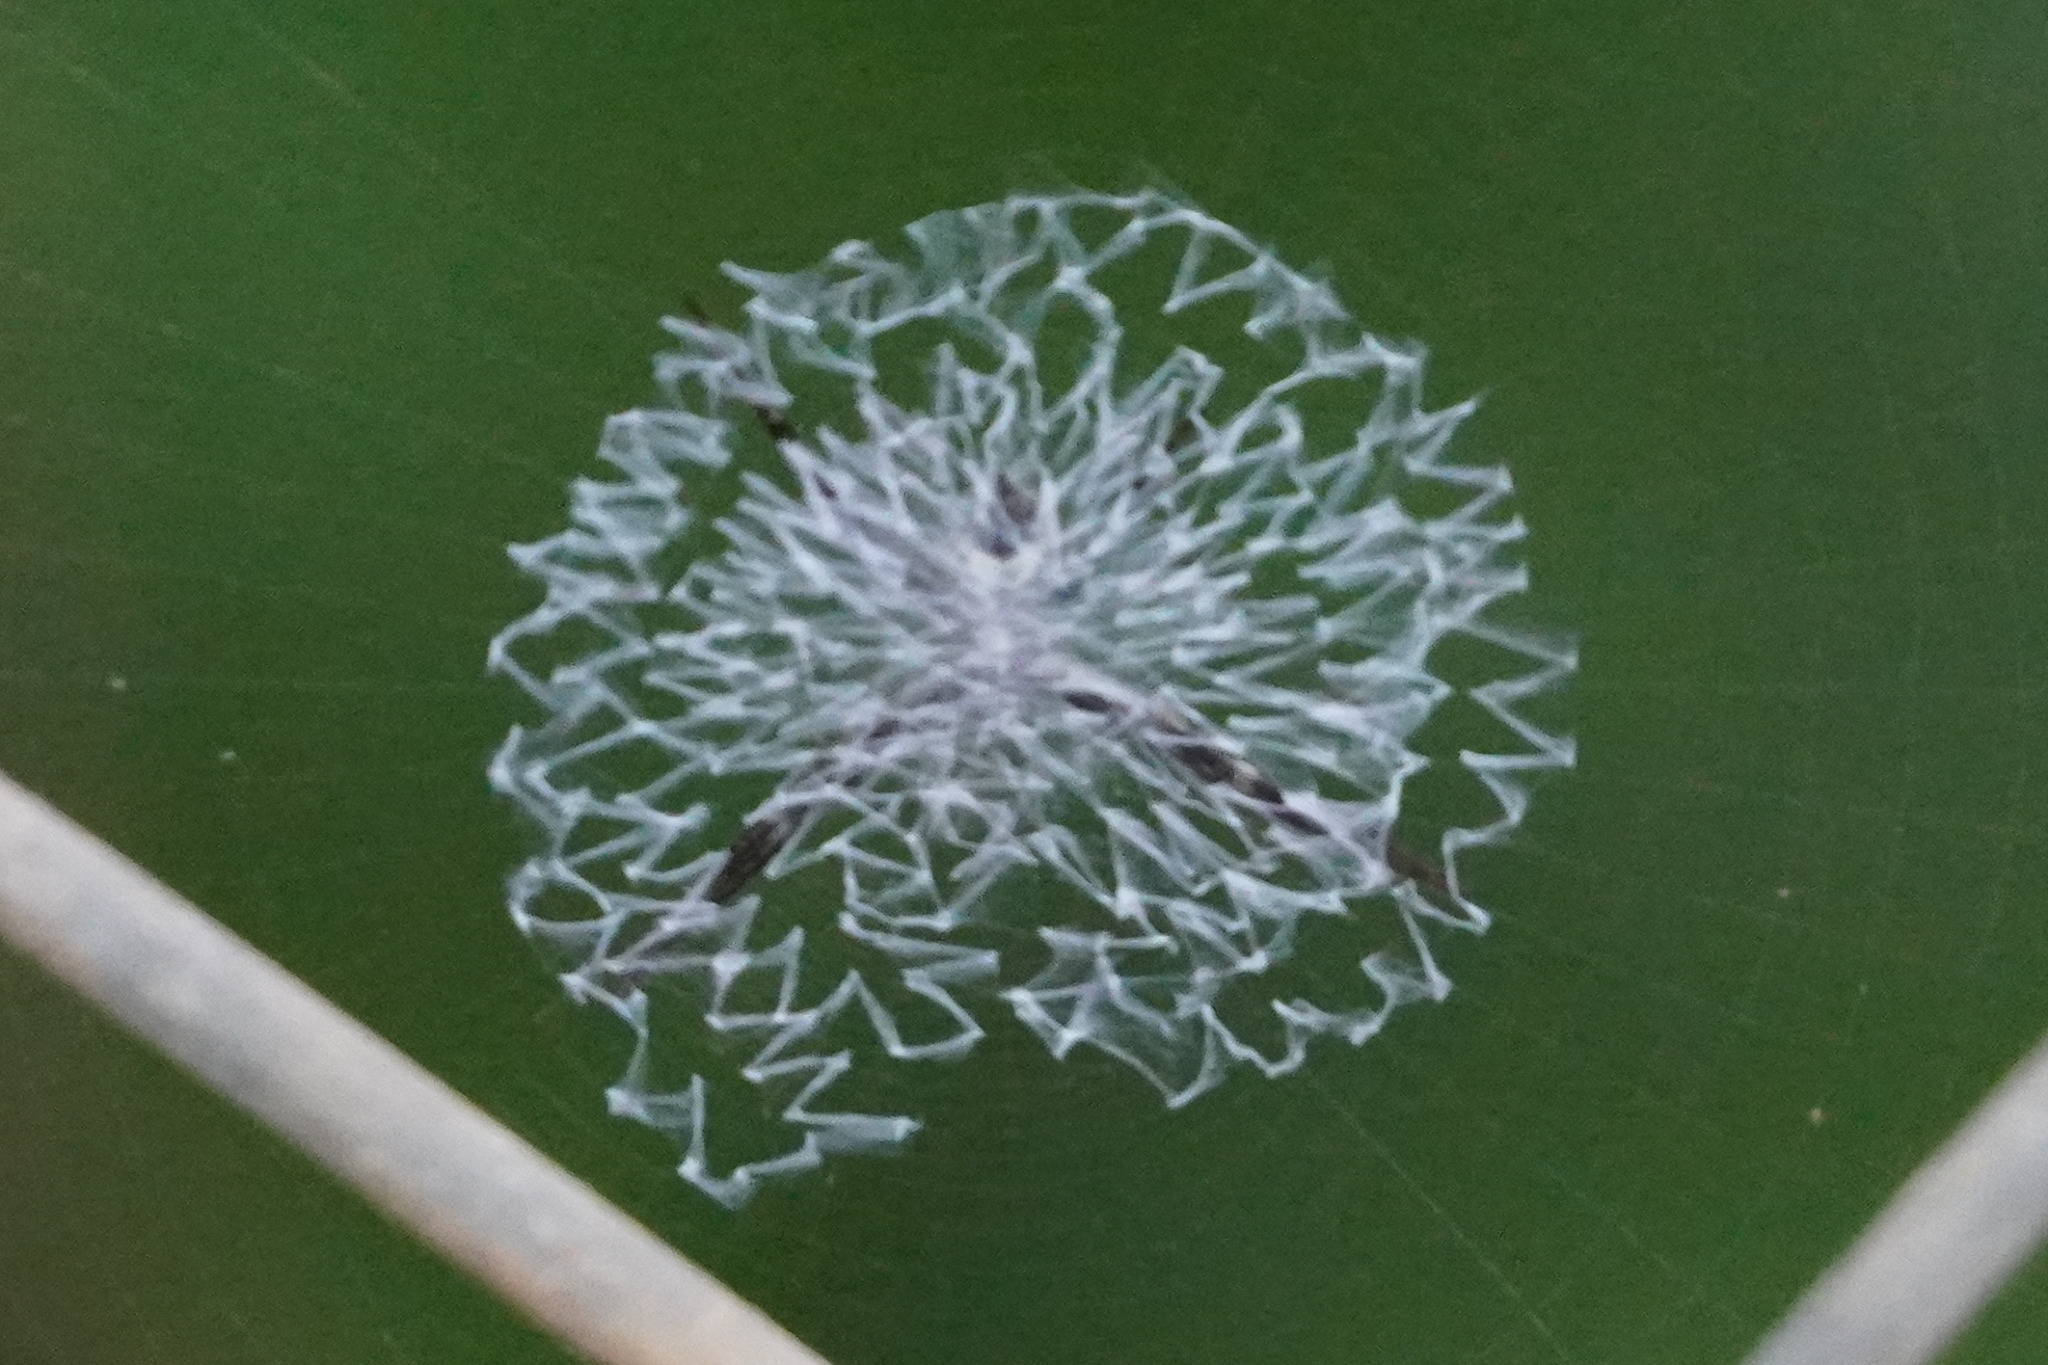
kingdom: Animalia
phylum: Arthropoda
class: Arachnida
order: Araneae
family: Araneidae
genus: Argiope
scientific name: Argiope submaronica
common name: Orb weavers
